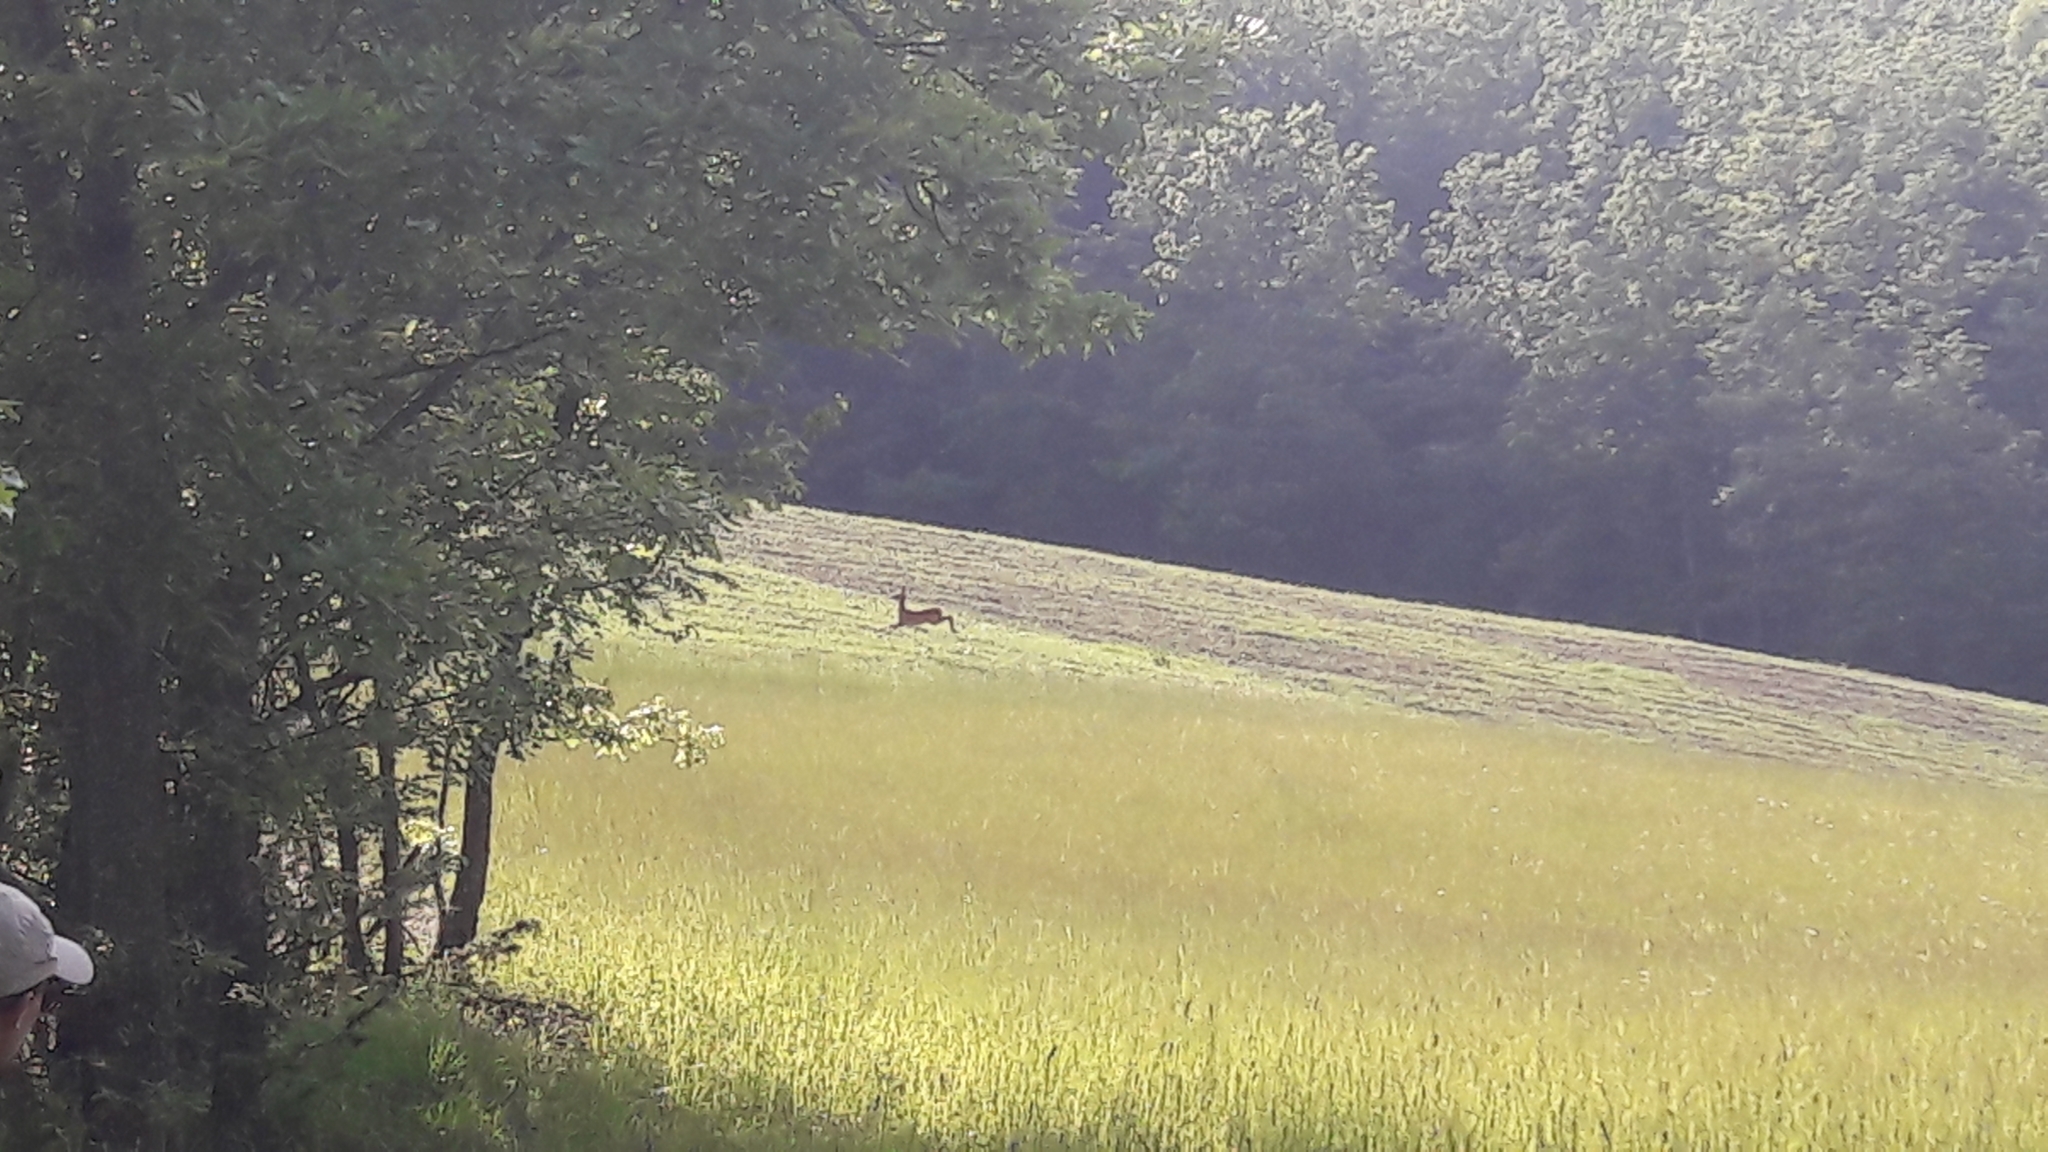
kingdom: Animalia
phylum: Chordata
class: Mammalia
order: Artiodactyla
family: Cervidae
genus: Capreolus
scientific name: Capreolus capreolus
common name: Western roe deer
